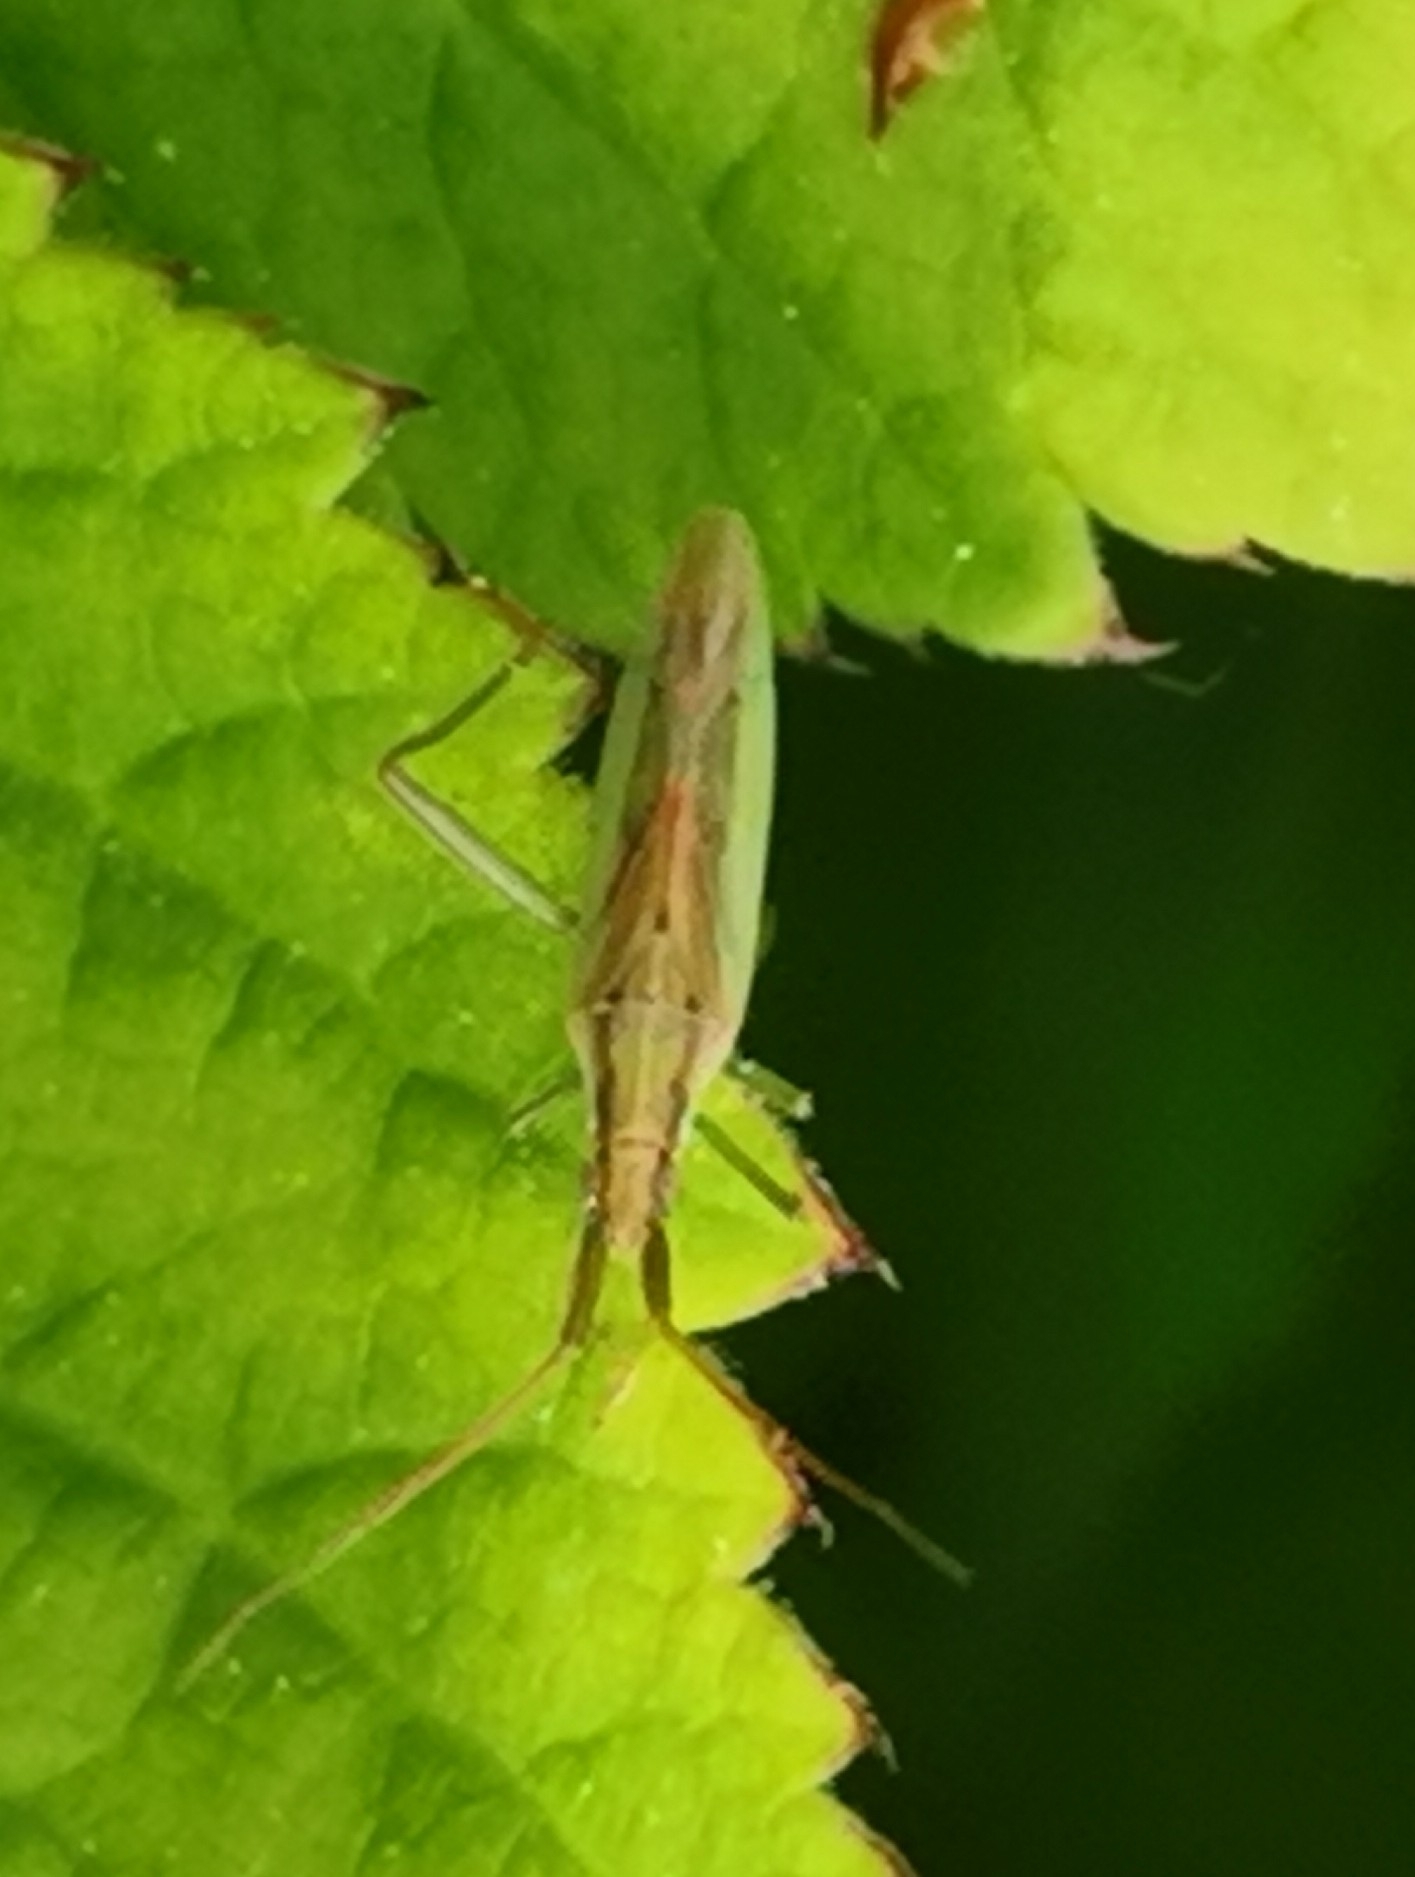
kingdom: Animalia
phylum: Arthropoda
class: Insecta
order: Hemiptera
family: Miridae
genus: Stenodema
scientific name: Stenodema laevigata
